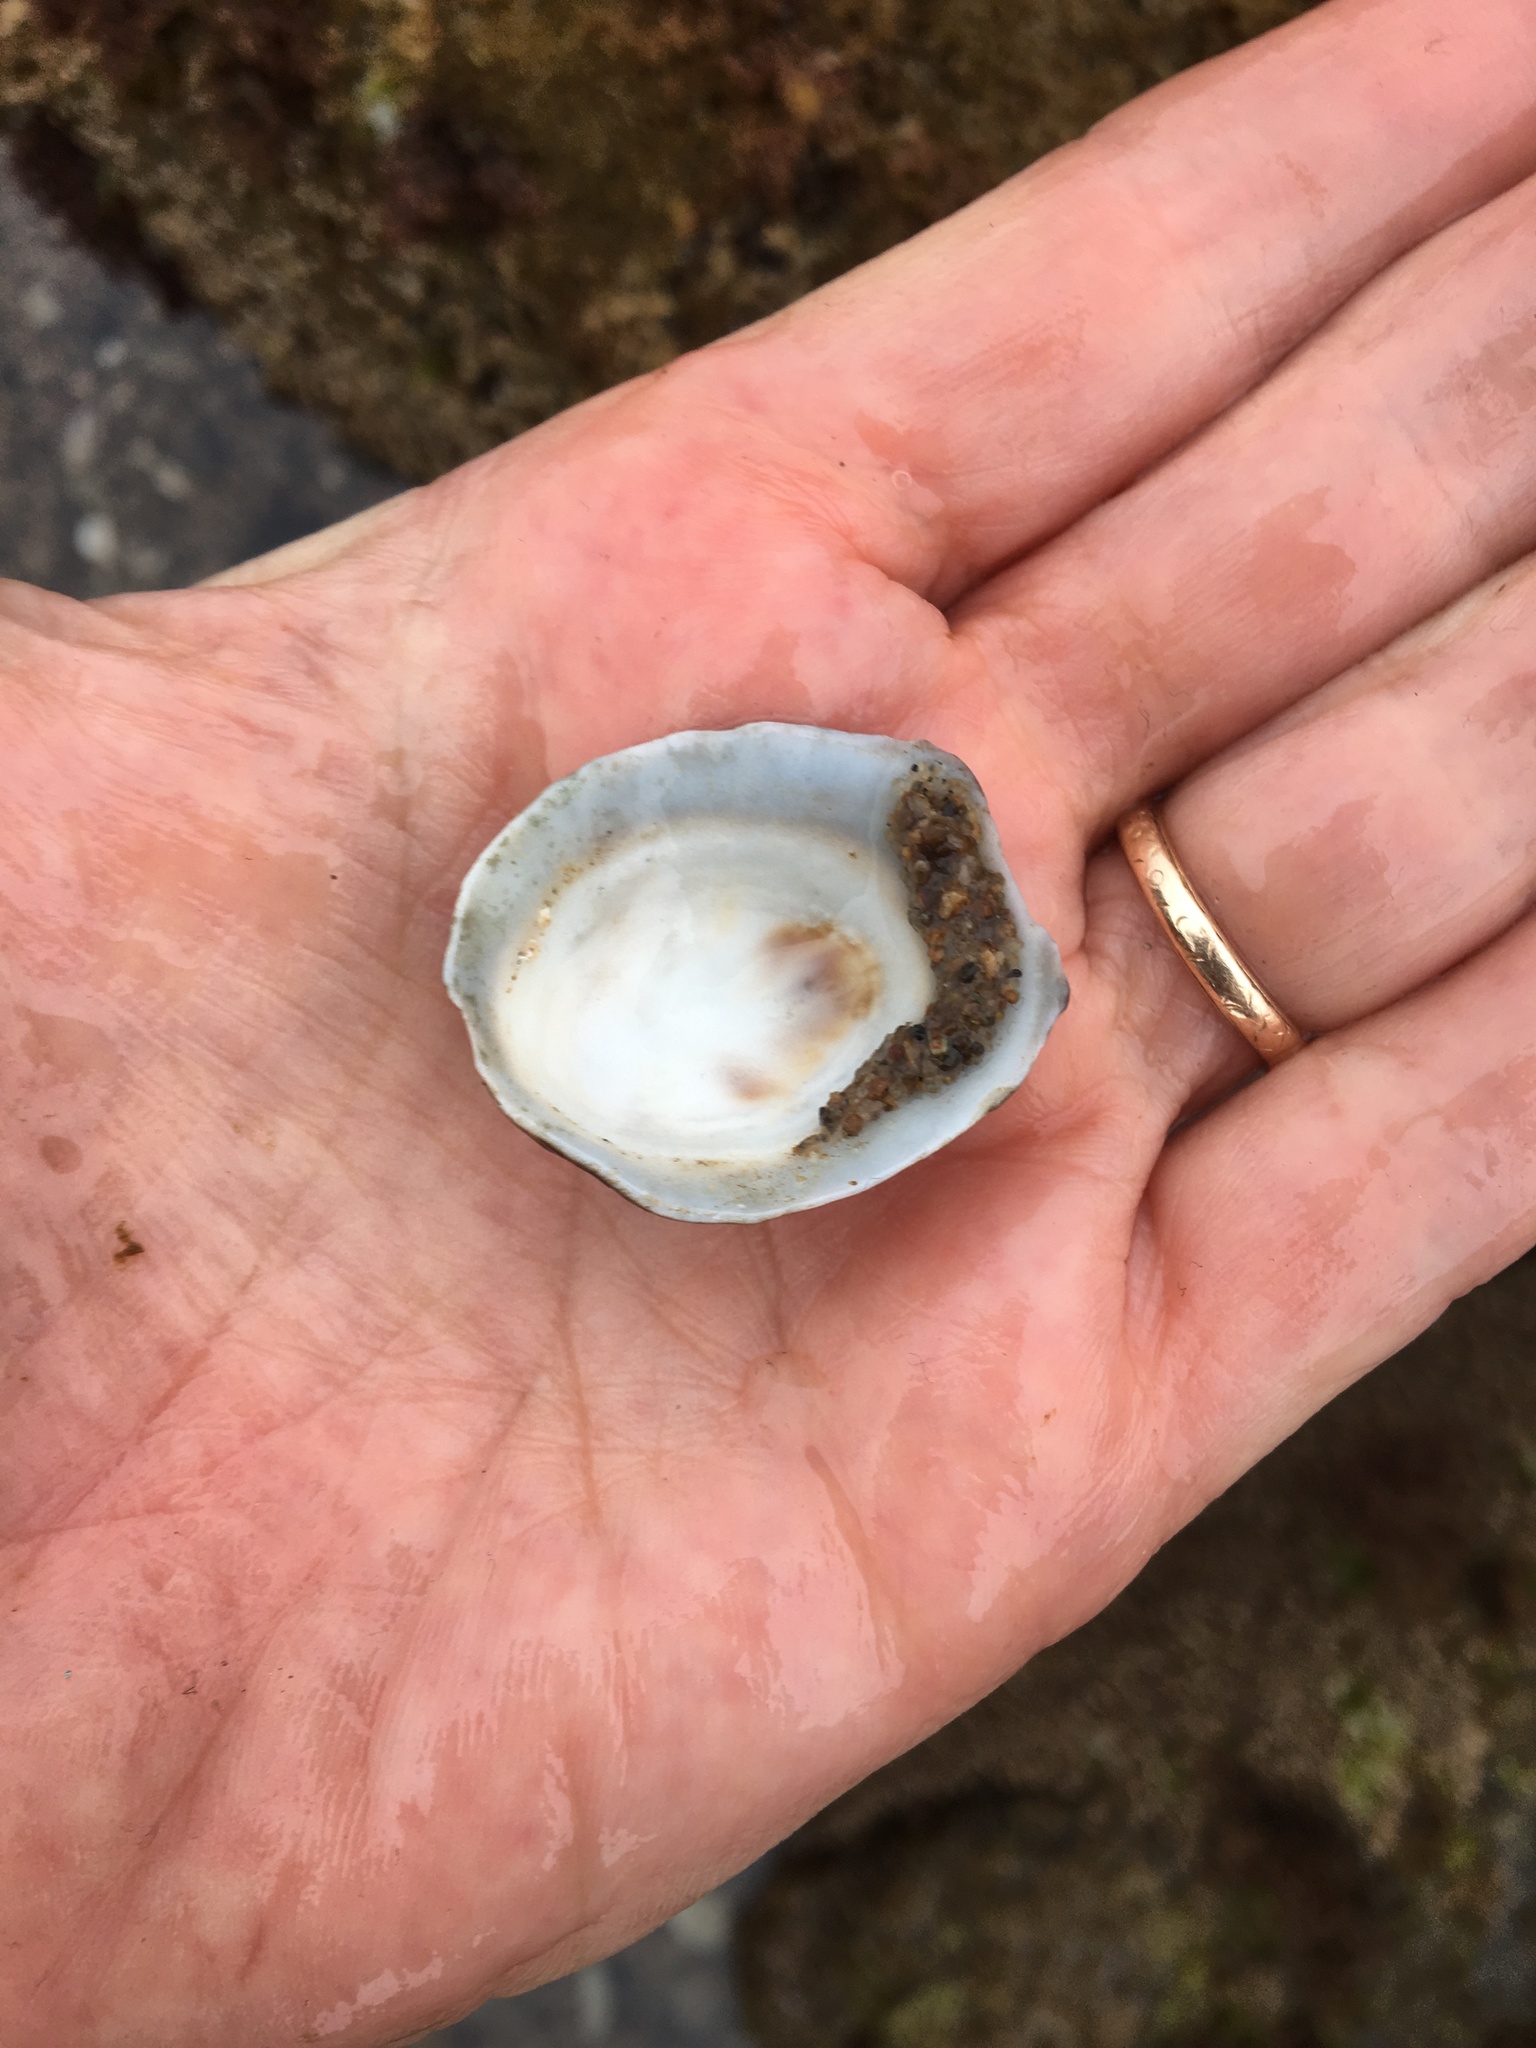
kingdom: Animalia
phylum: Mollusca
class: Gastropoda
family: Lottiidae
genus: Lottia
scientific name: Lottia gigantea
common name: Owl limpet
